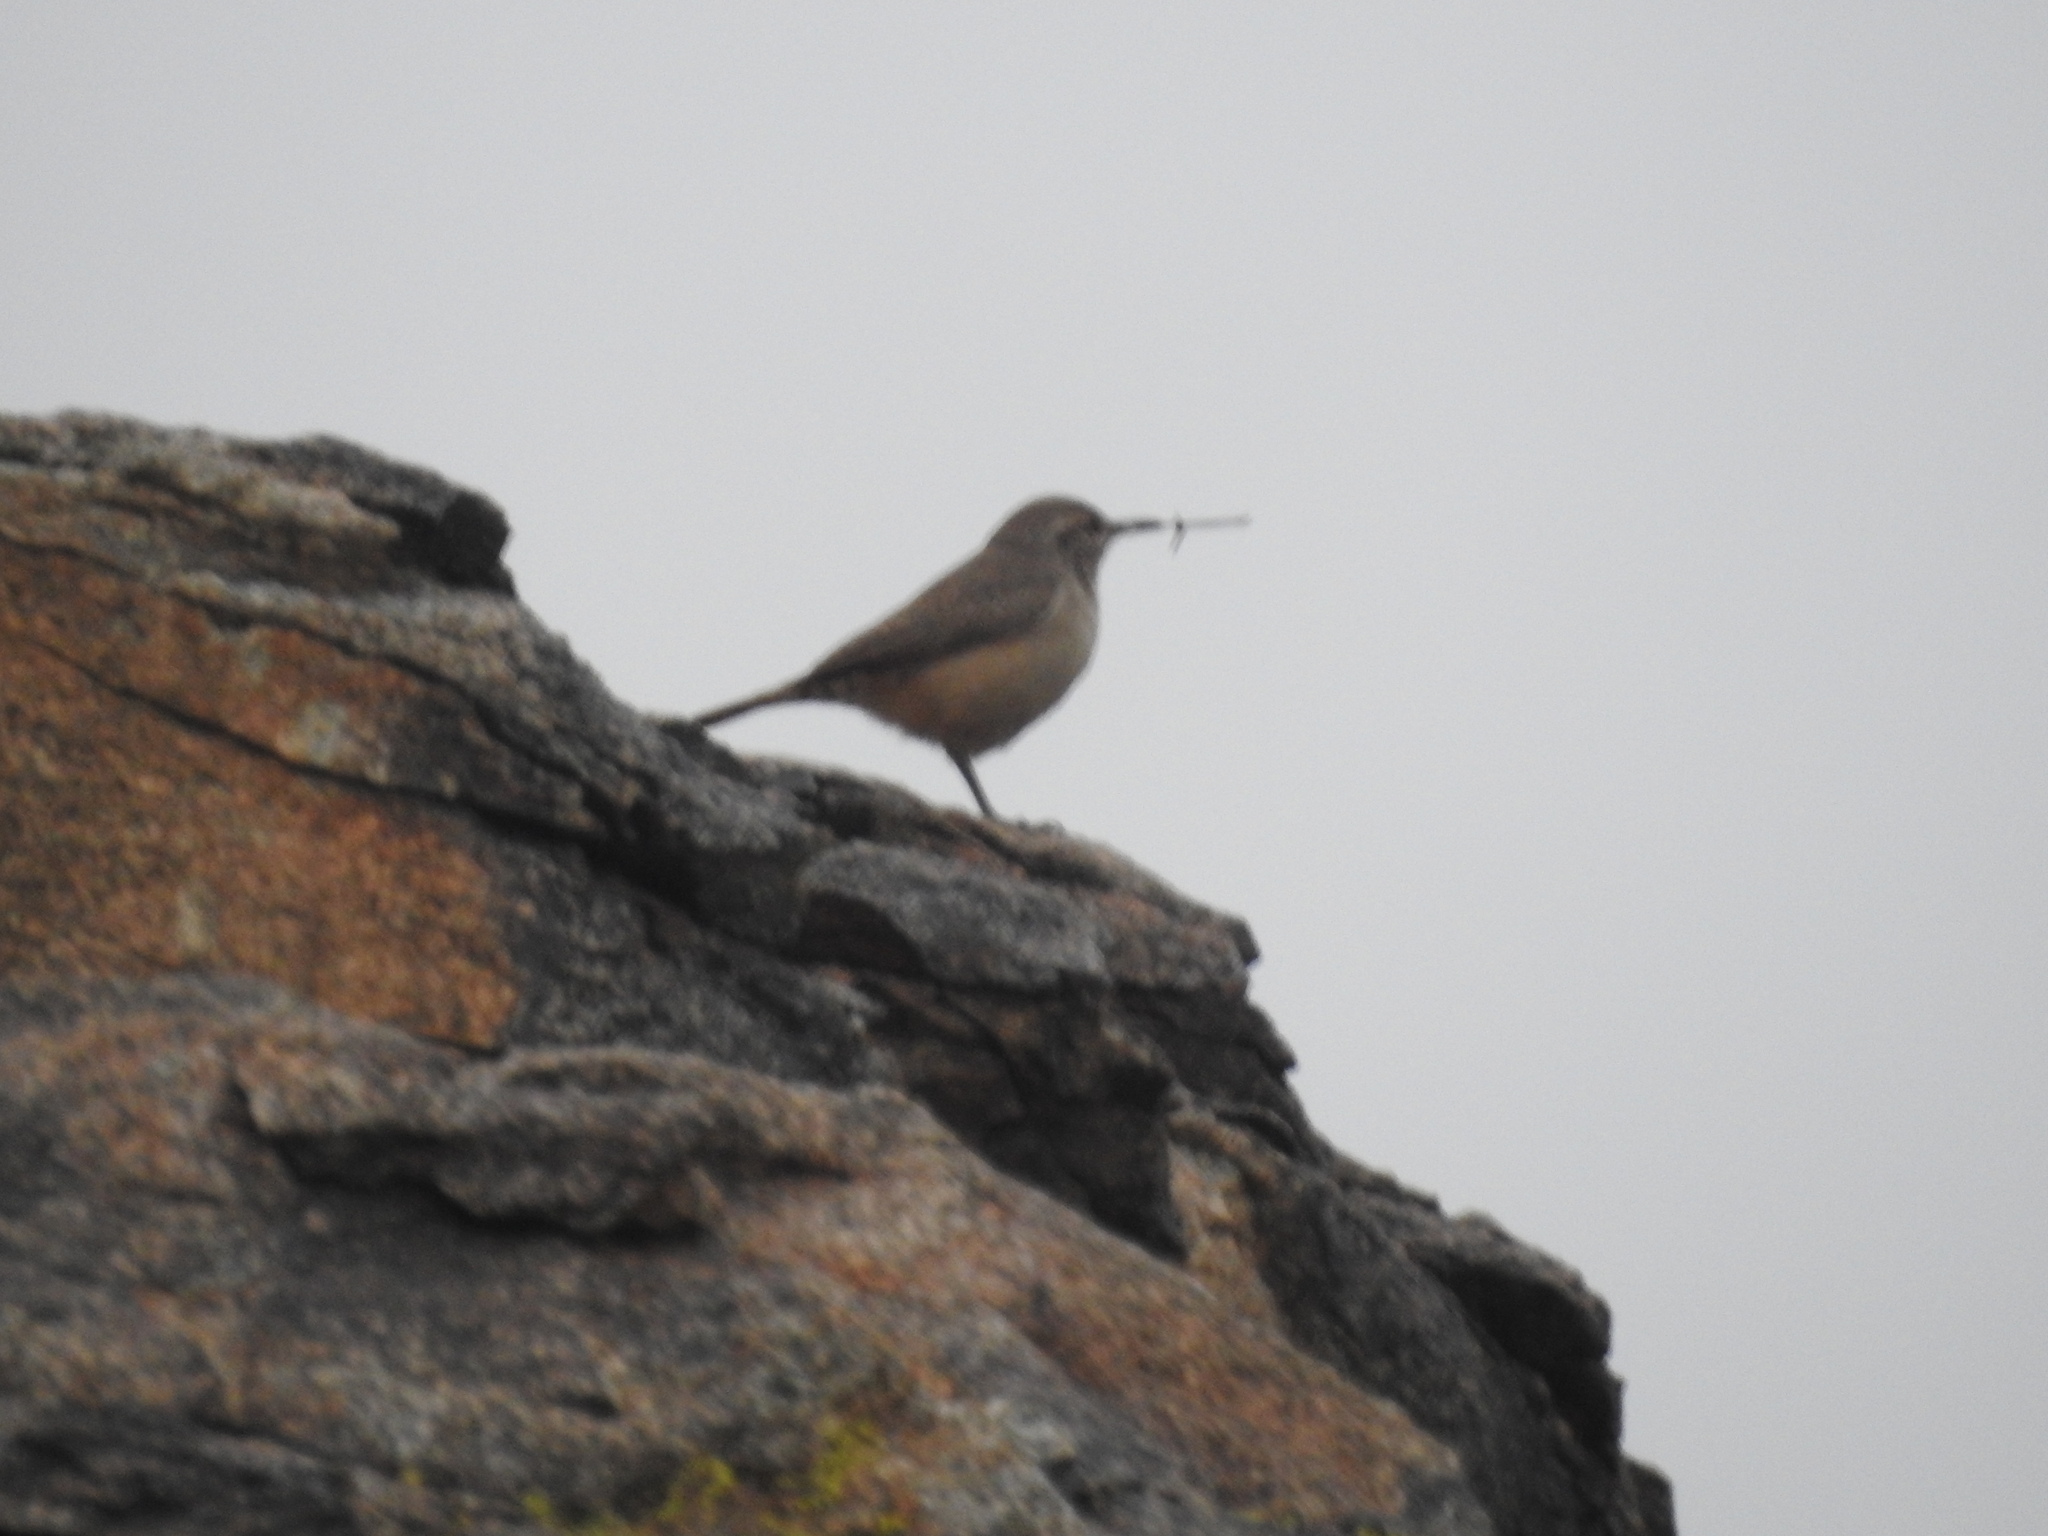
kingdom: Animalia
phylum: Chordata
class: Aves
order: Passeriformes
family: Troglodytidae
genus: Salpinctes
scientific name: Salpinctes obsoletus
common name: Rock wren
